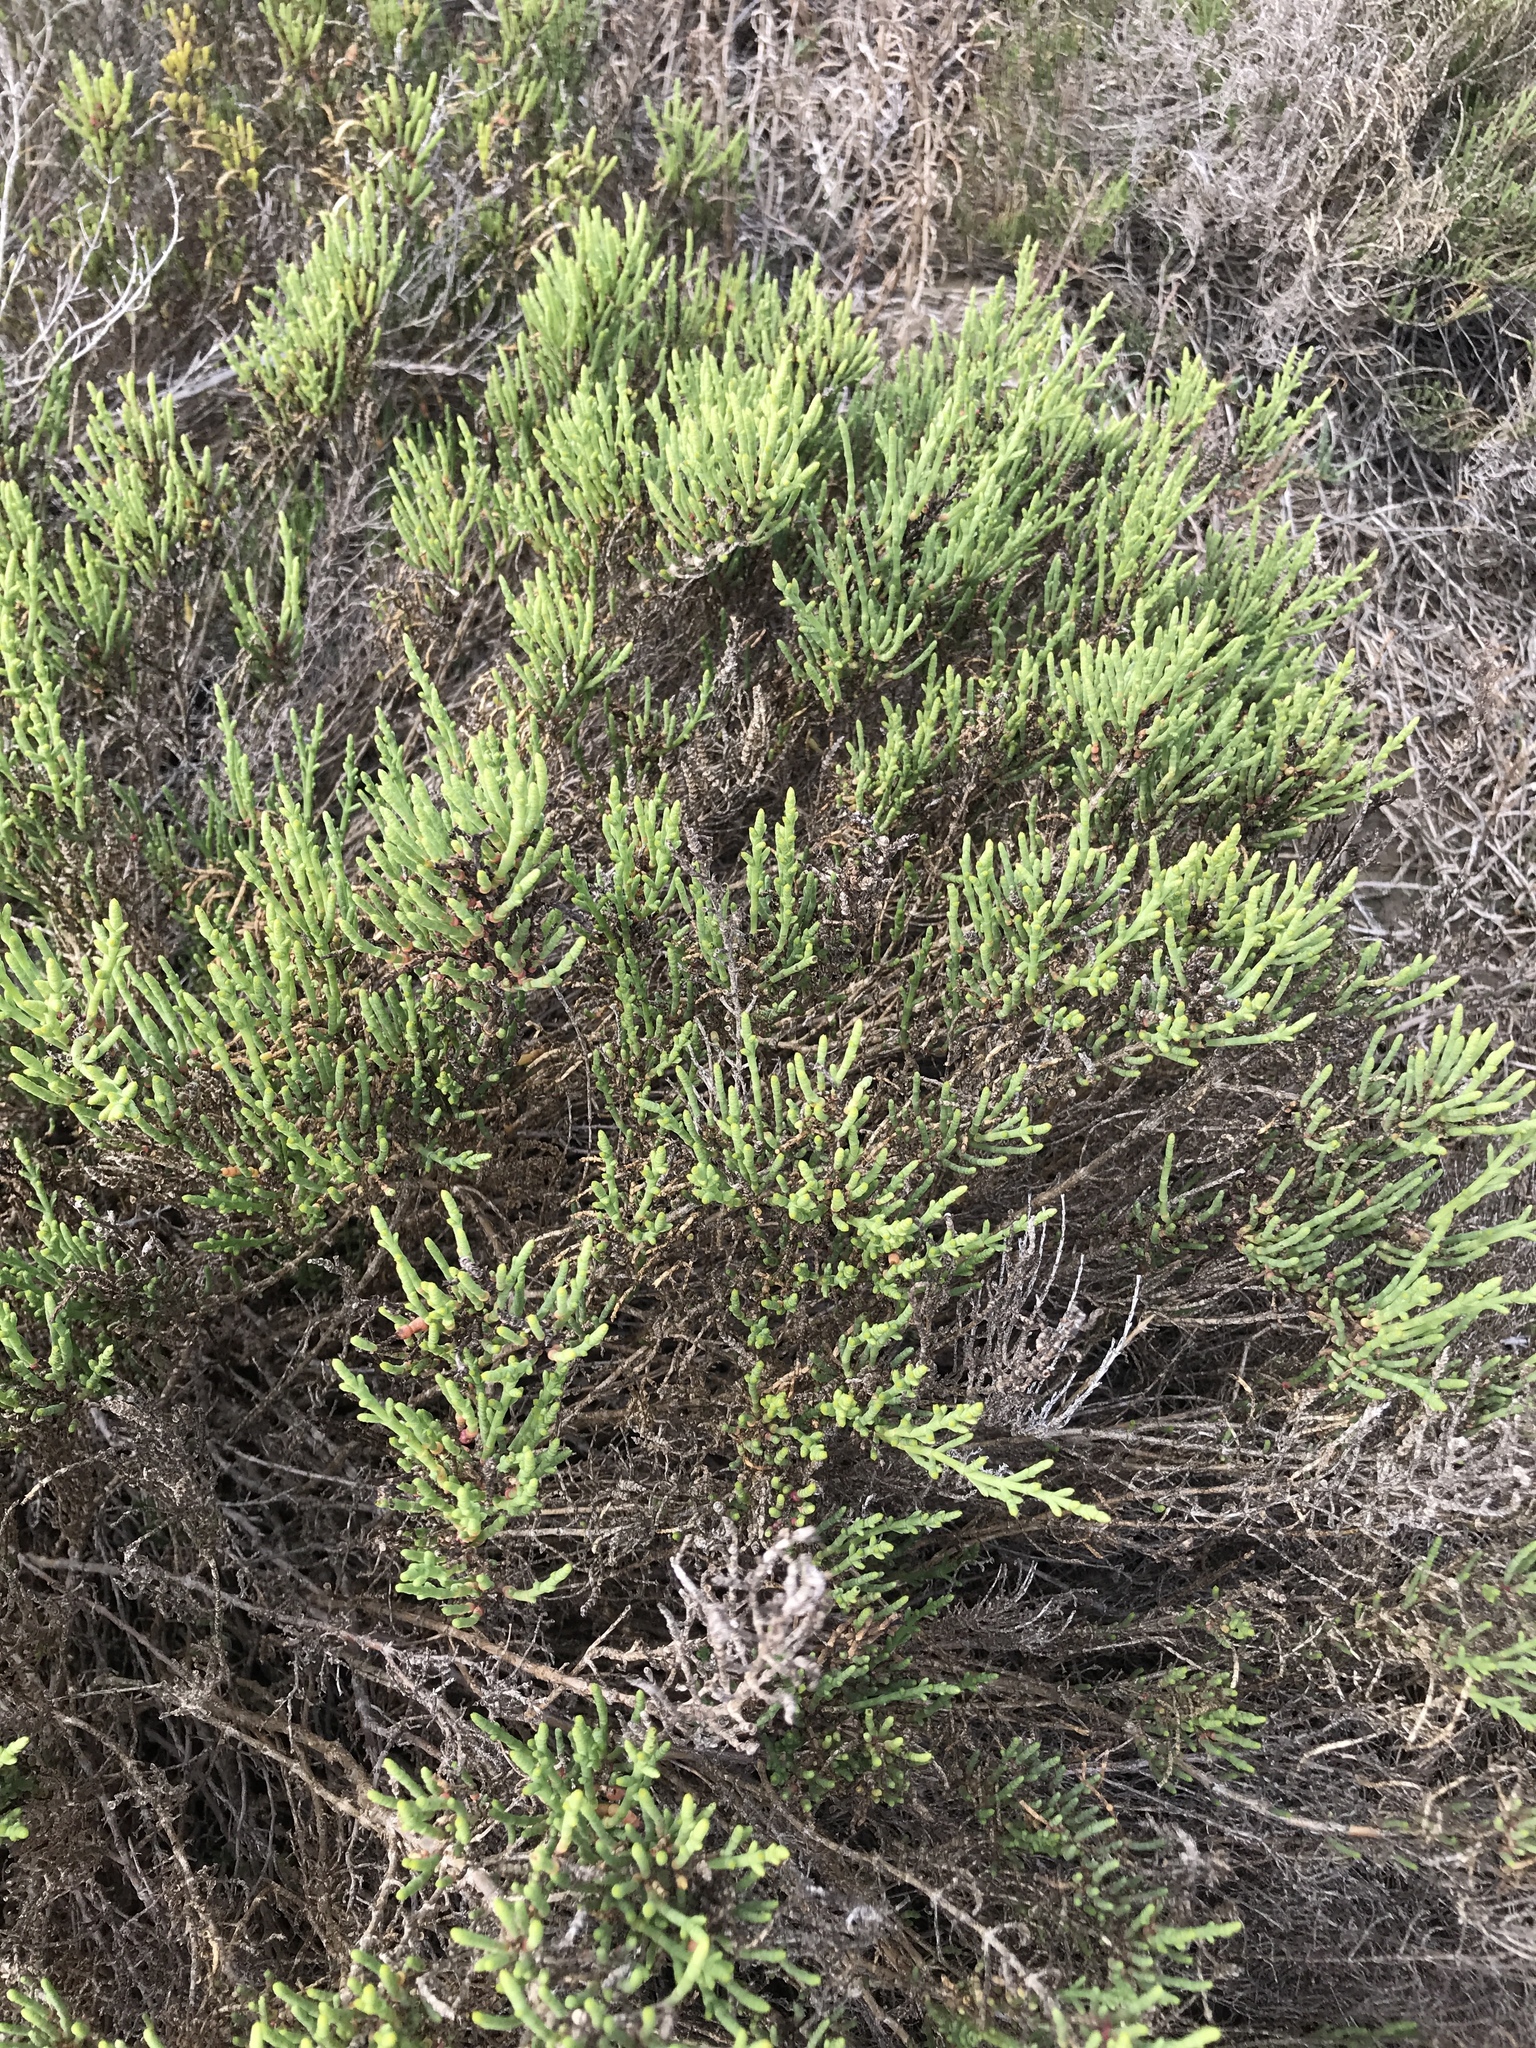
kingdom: Plantae
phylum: Tracheophyta
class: Magnoliopsida
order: Caryophyllales
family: Amaranthaceae
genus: Arthroceras
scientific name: Arthroceras subterminale
